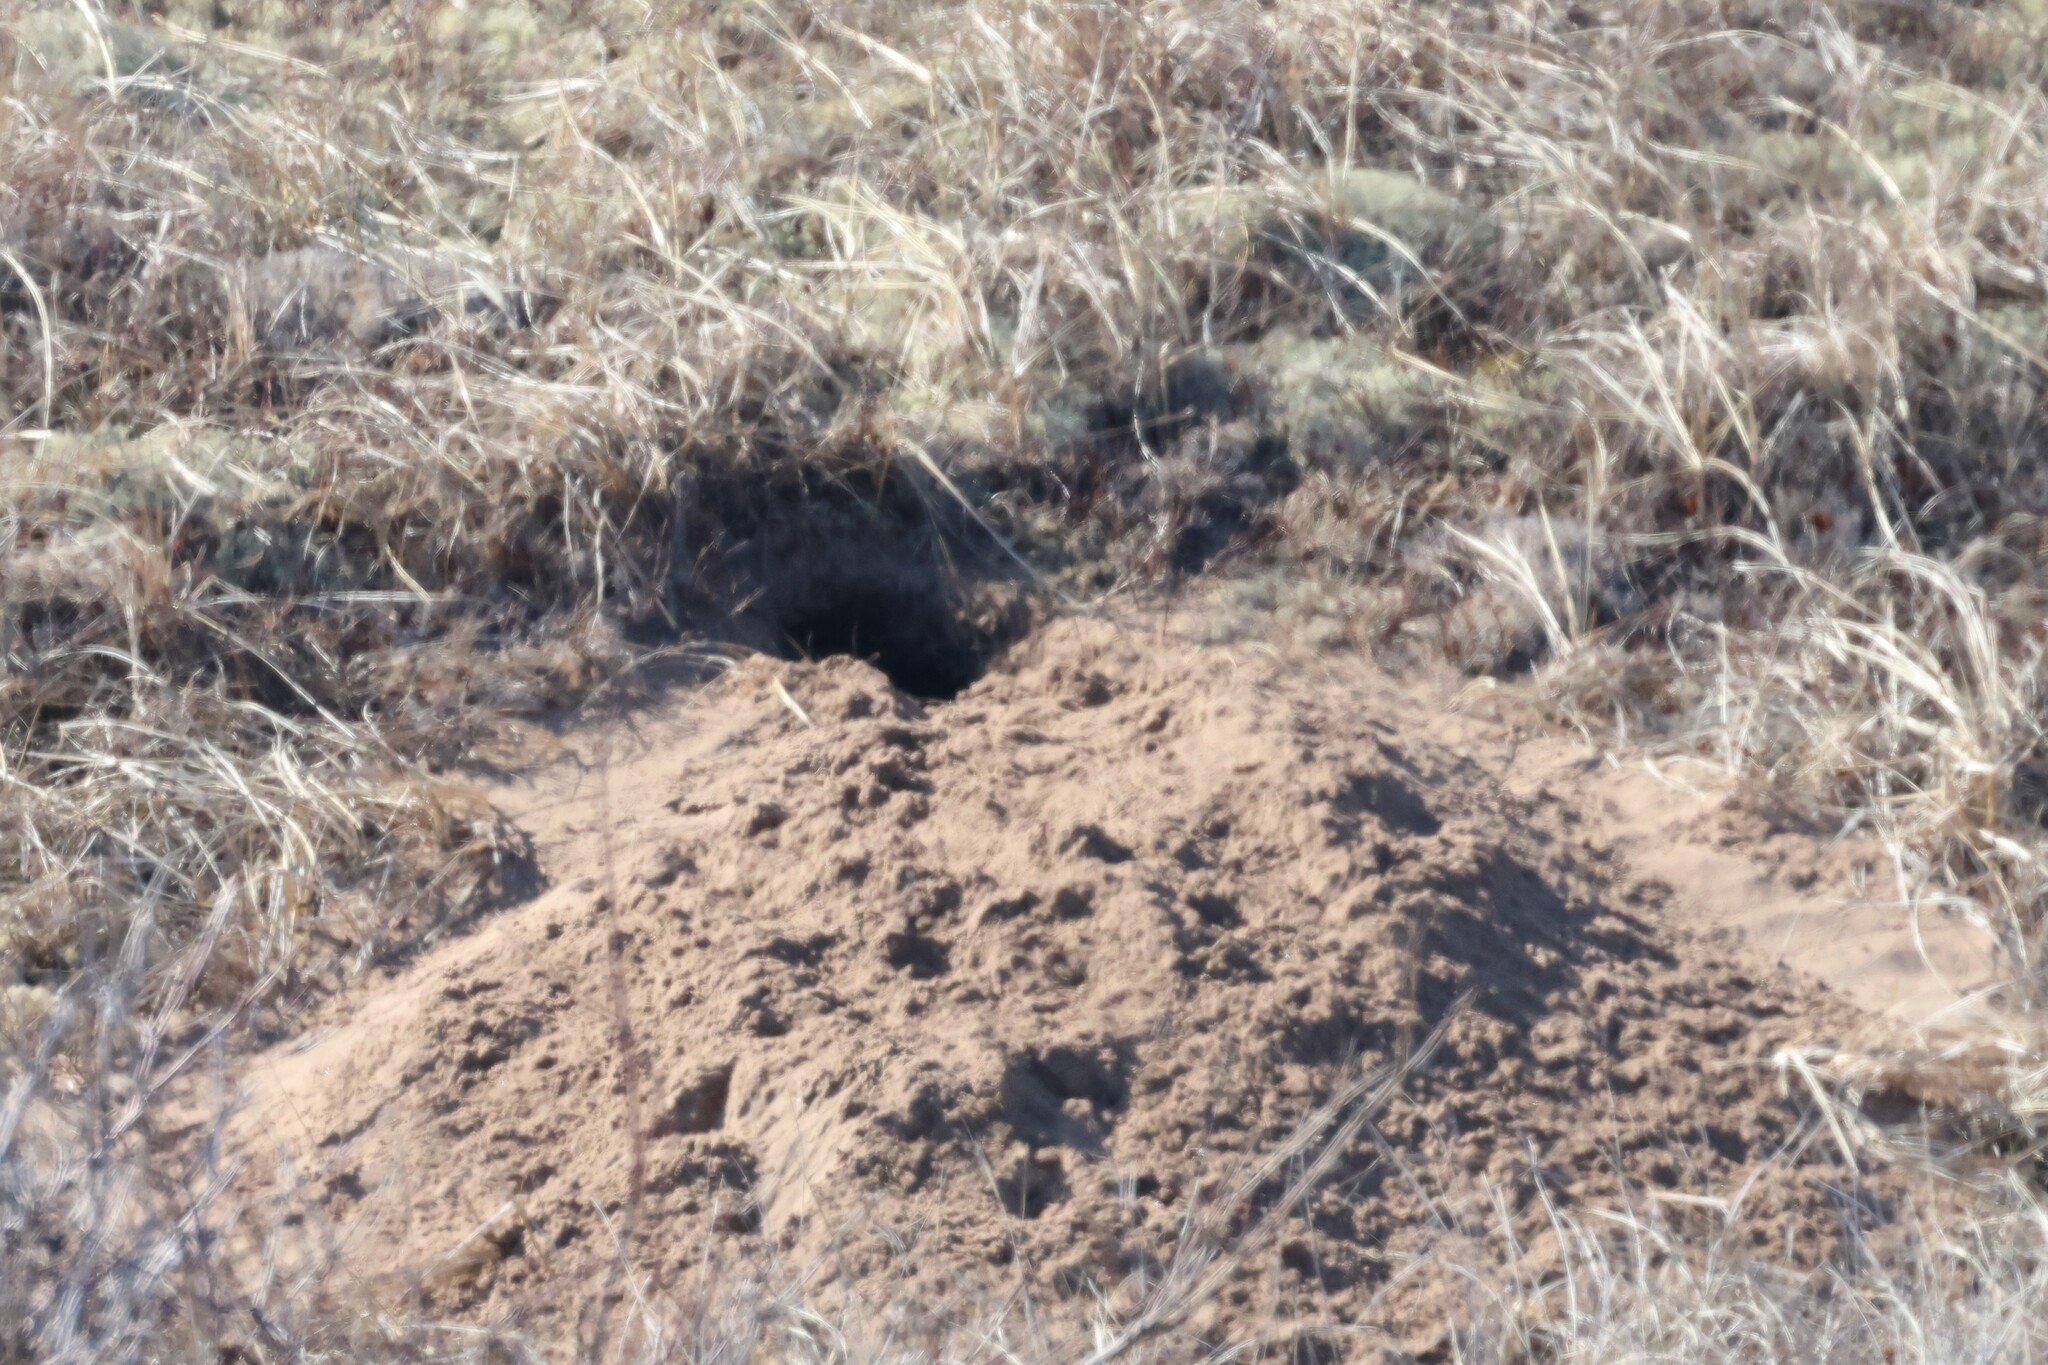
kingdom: Animalia
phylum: Chordata
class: Mammalia
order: Carnivora
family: Canidae
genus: Vulpes
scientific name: Vulpes vulpes
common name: Red fox
